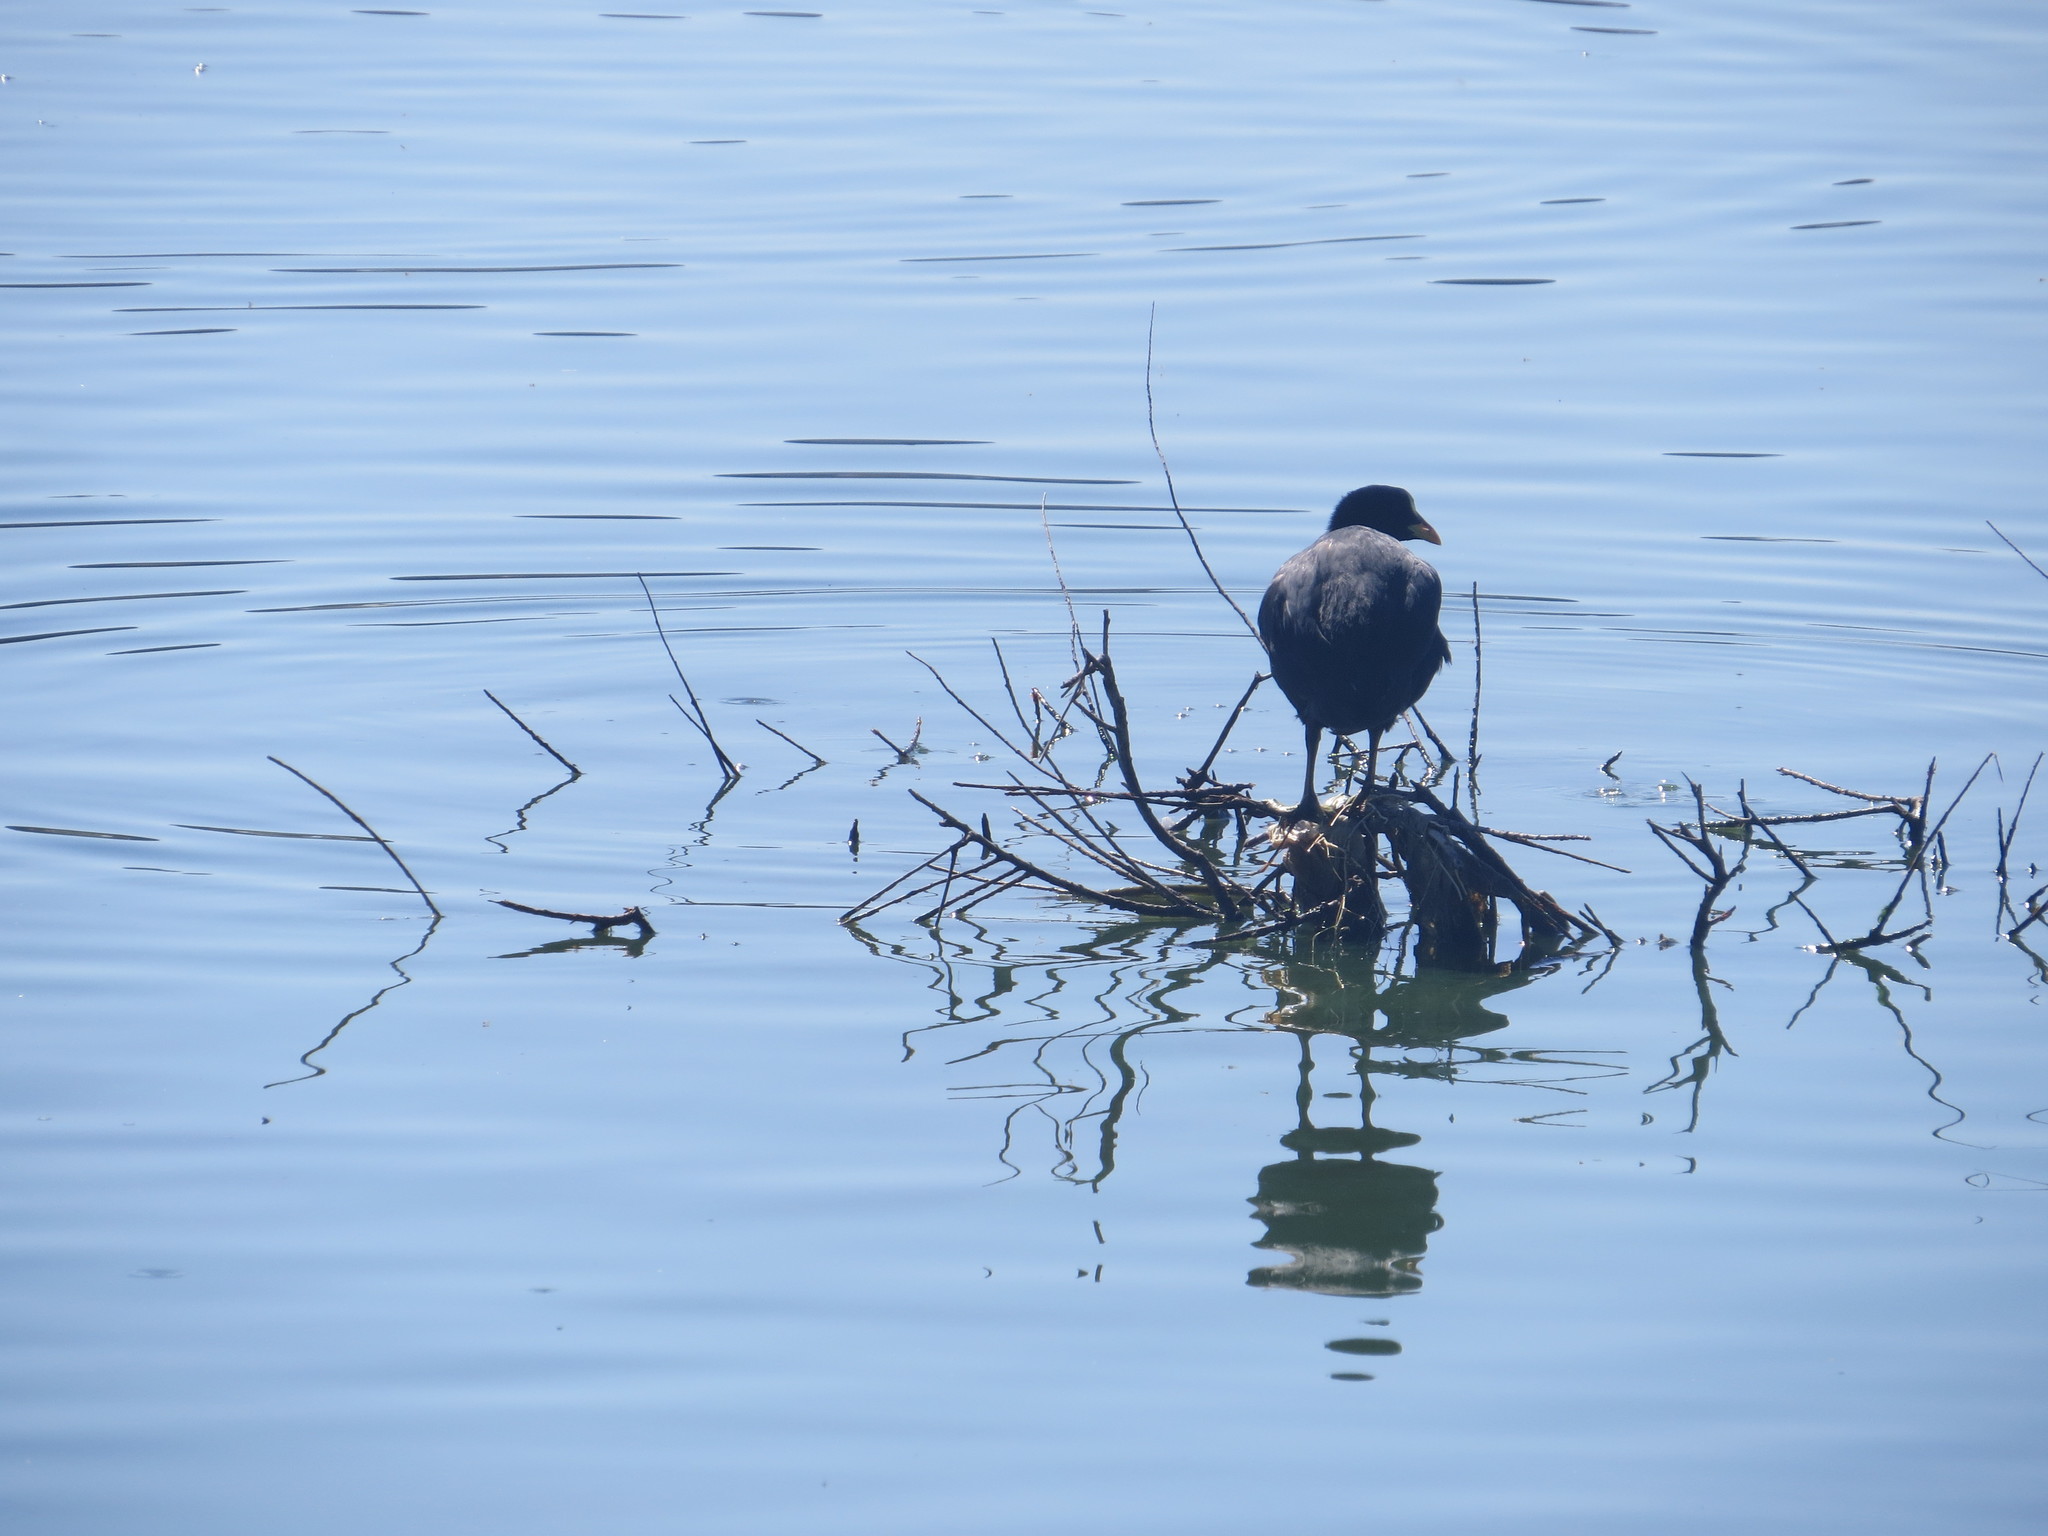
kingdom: Animalia
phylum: Chordata
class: Aves
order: Gruiformes
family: Rallidae
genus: Fulica
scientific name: Fulica armillata
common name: Red-gartered coot
